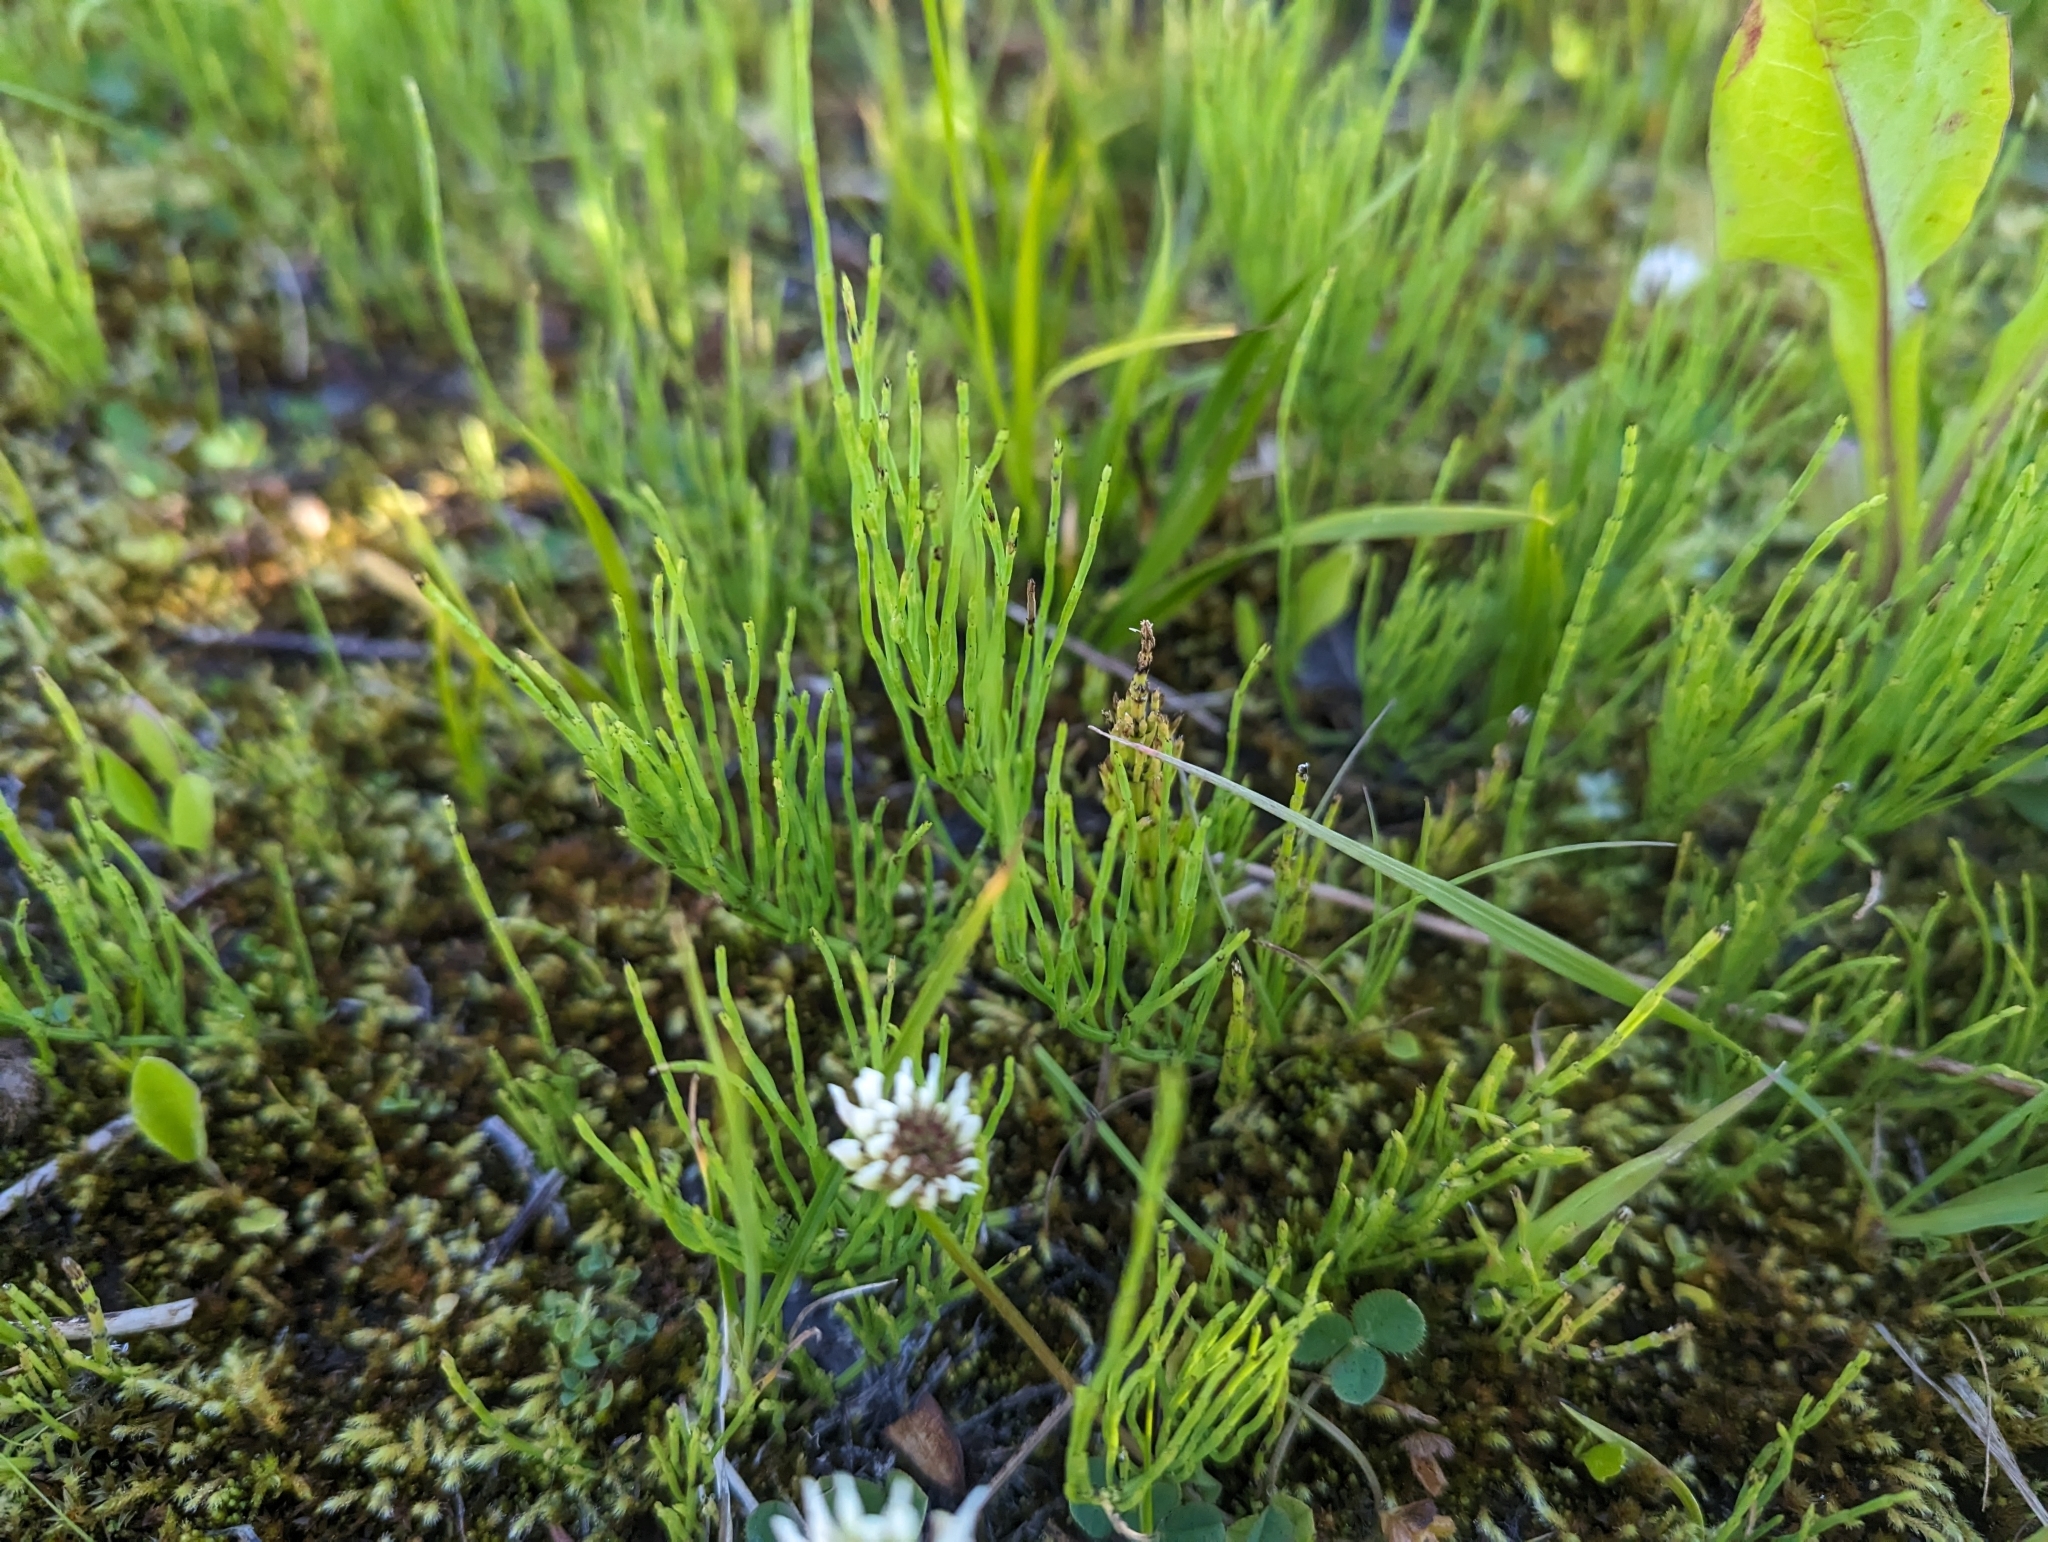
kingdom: Plantae
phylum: Tracheophyta
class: Polypodiopsida
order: Equisetales
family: Equisetaceae
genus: Equisetum
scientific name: Equisetum arvense
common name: Field horsetail
